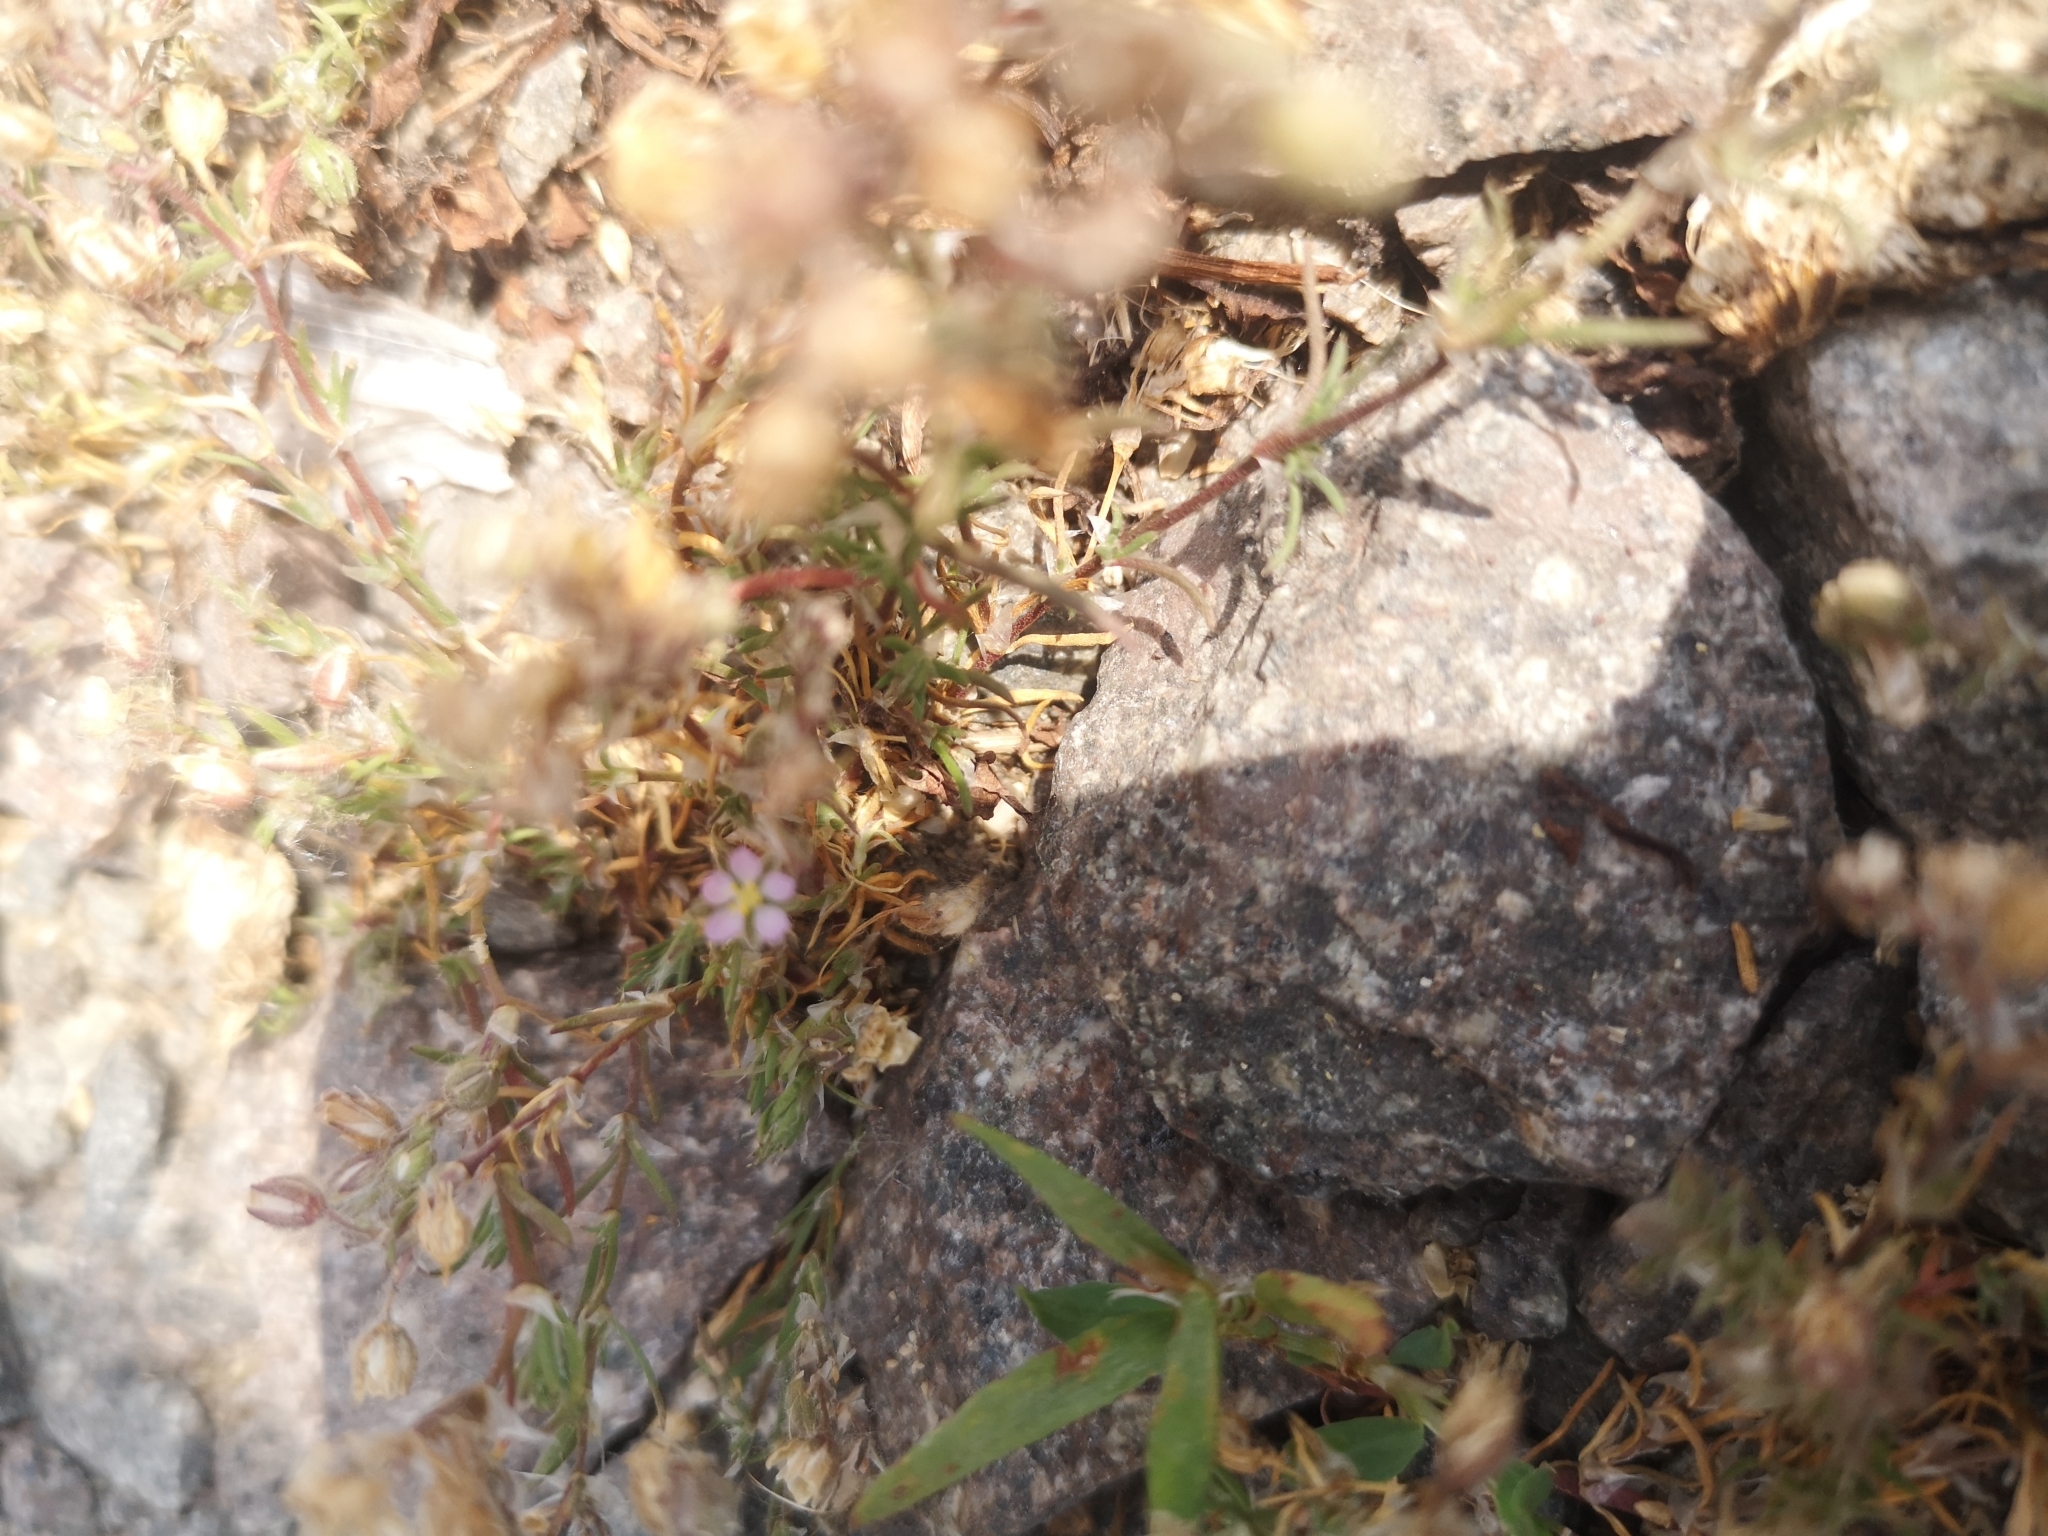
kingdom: Plantae
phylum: Tracheophyta
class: Magnoliopsida
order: Caryophyllales
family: Caryophyllaceae
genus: Spergularia
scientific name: Spergularia rubra
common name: Red sand-spurrey
